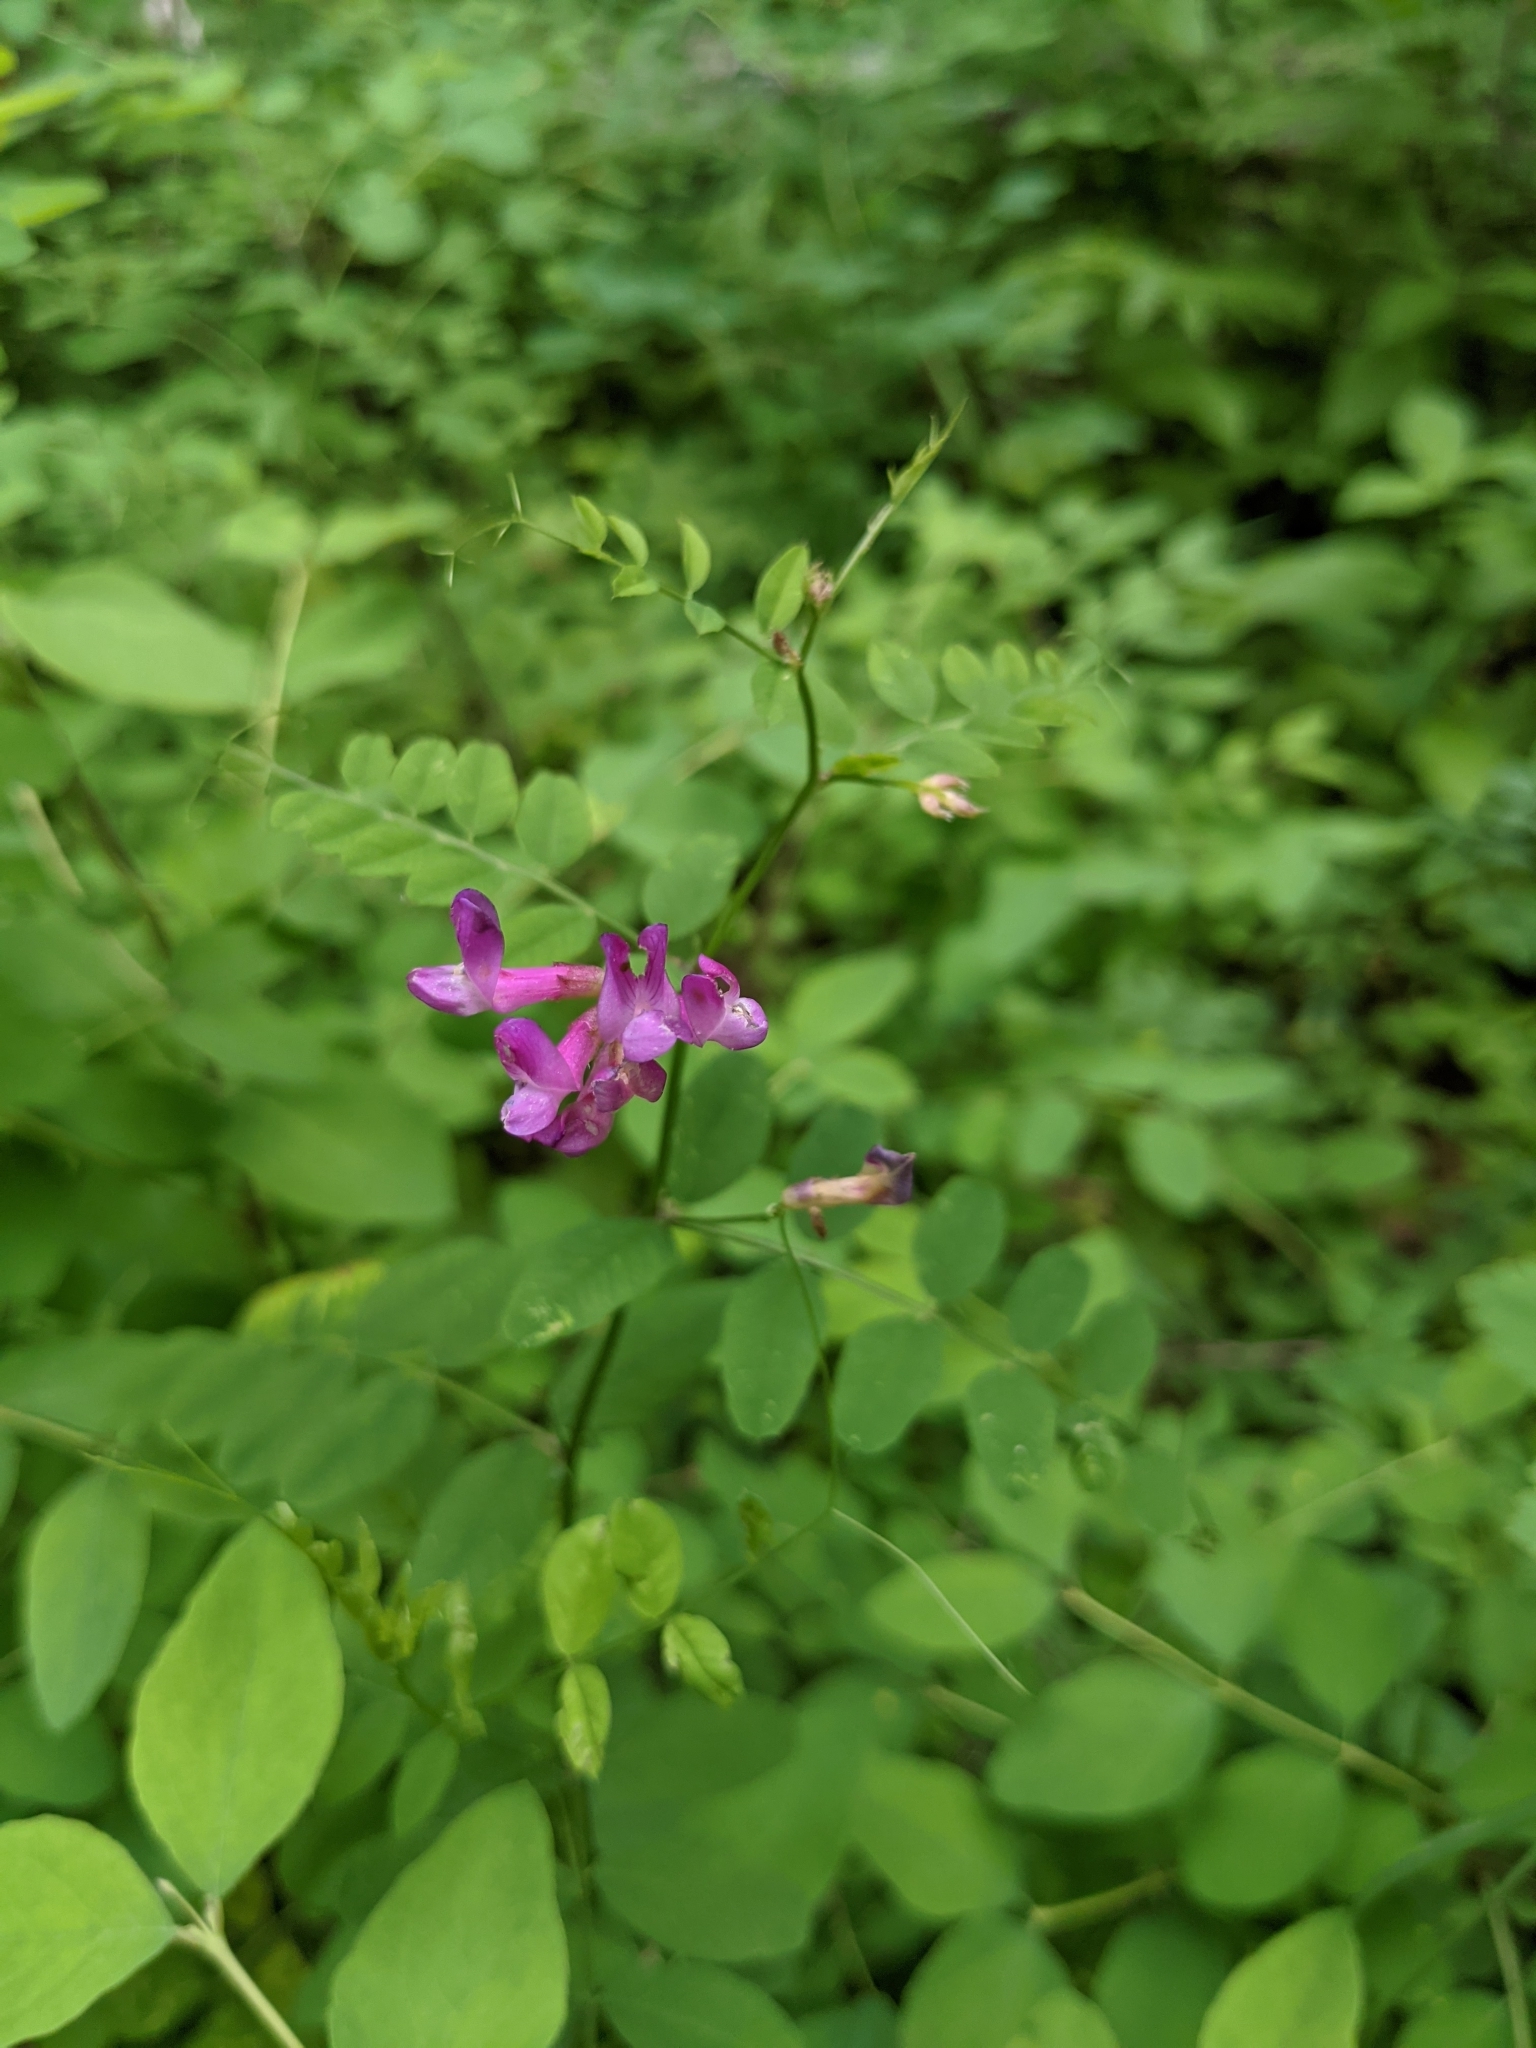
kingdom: Plantae
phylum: Tracheophyta
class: Magnoliopsida
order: Fabales
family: Fabaceae
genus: Vicia
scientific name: Vicia americana
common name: American vetch
